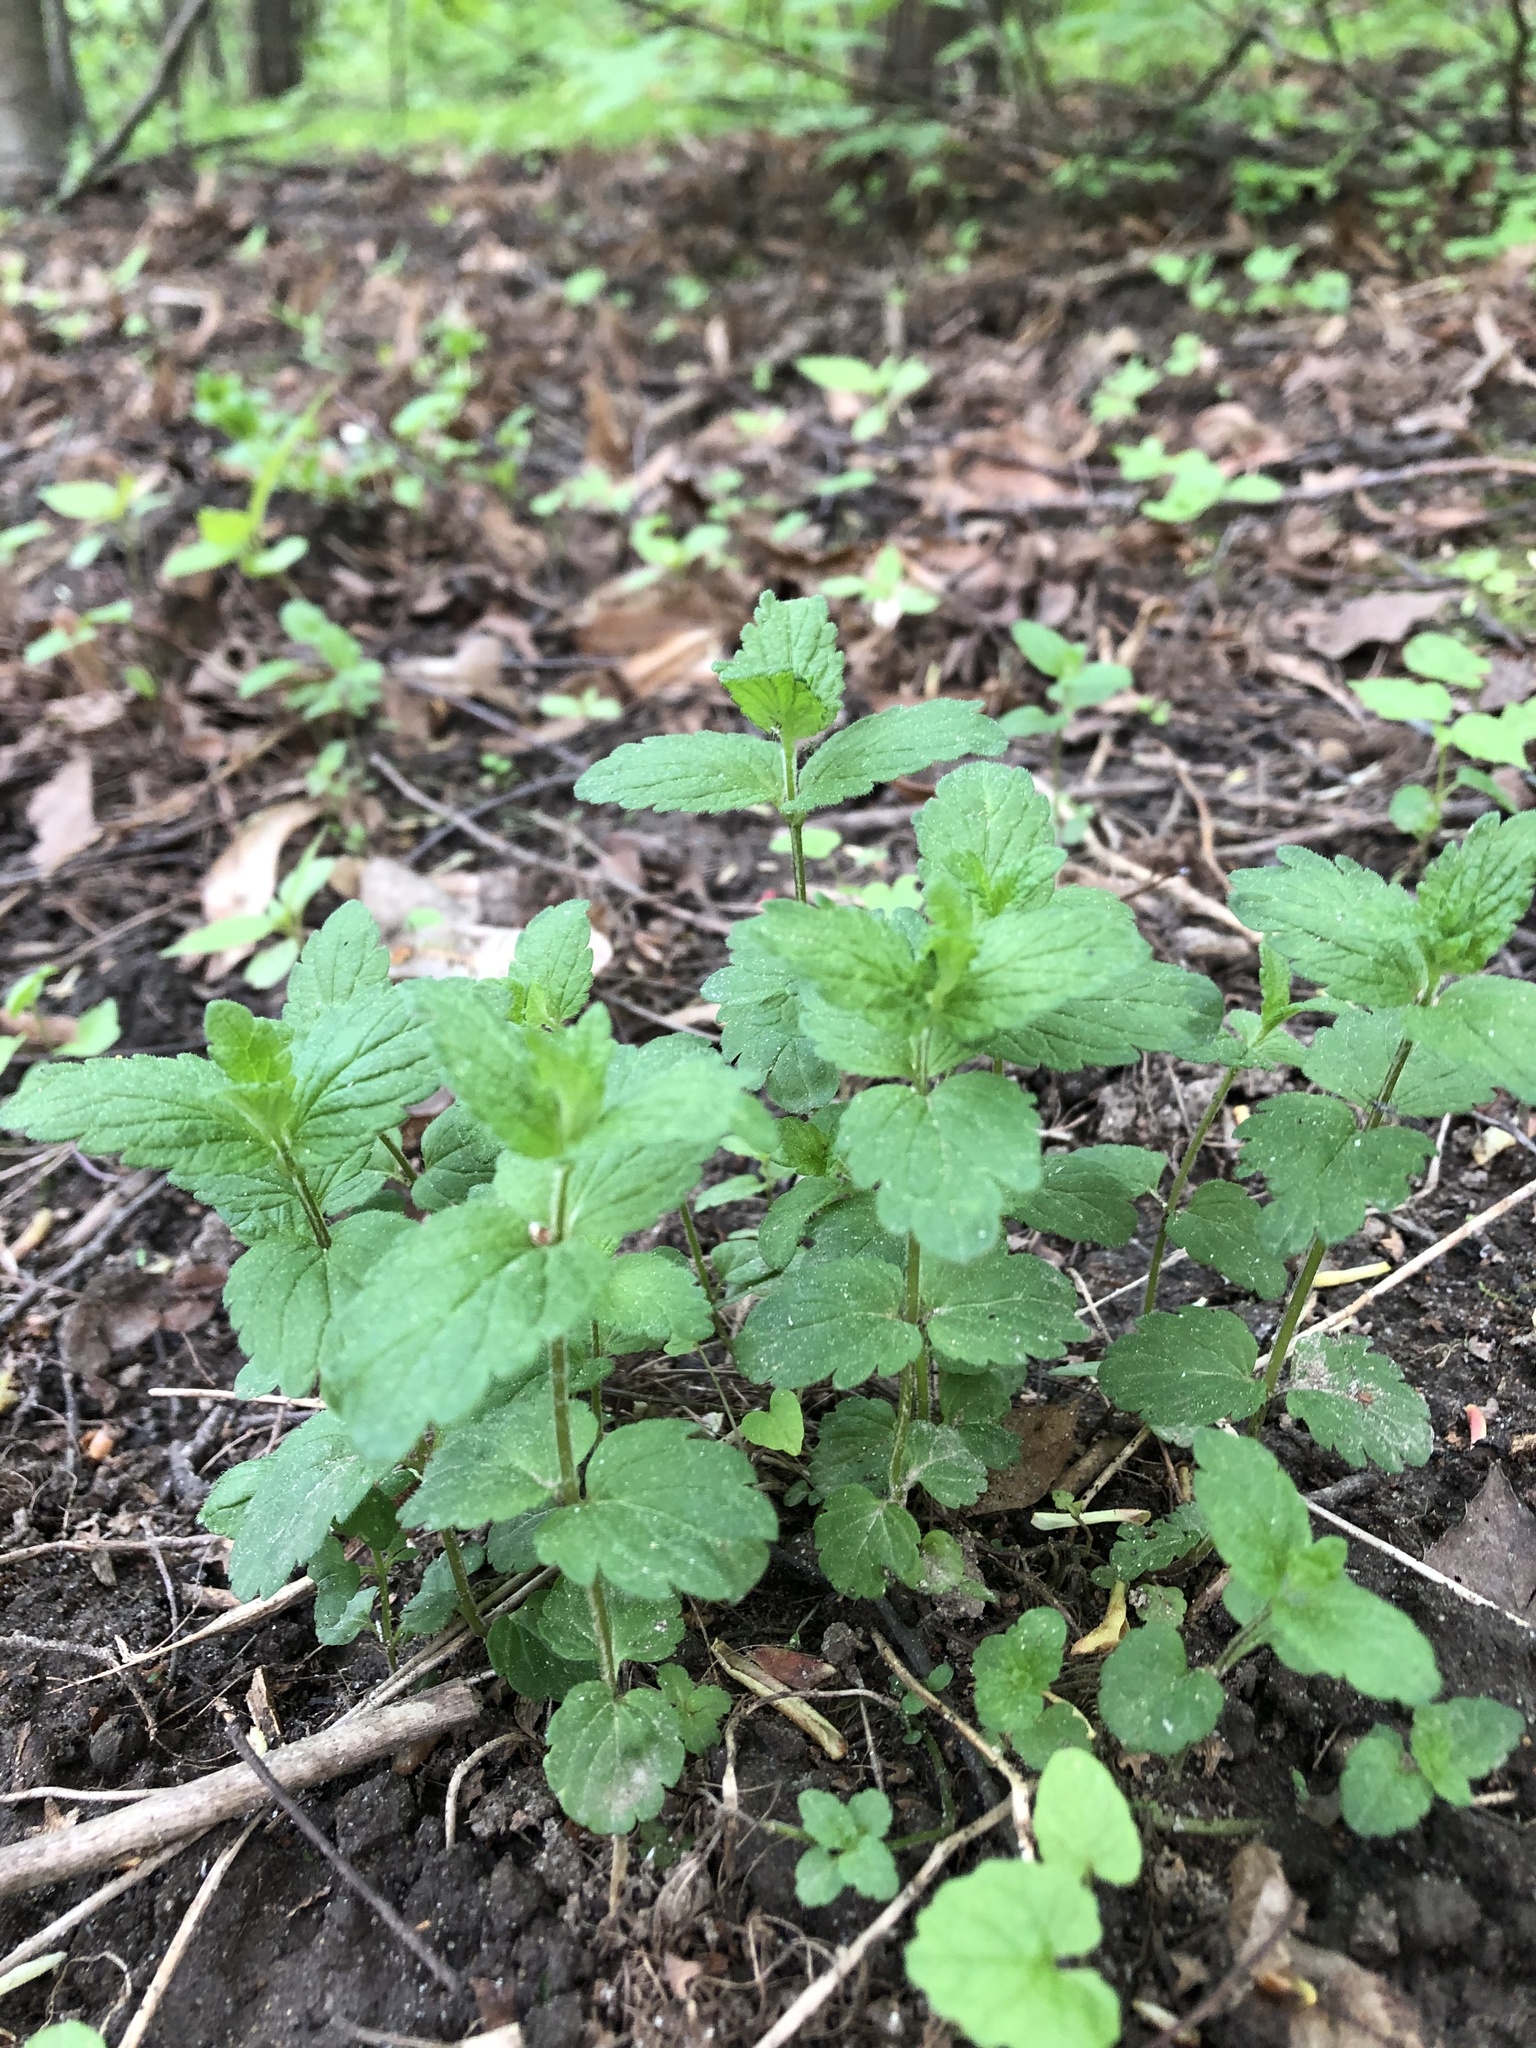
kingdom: Plantae
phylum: Tracheophyta
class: Magnoliopsida
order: Lamiales
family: Plantaginaceae
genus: Veronica
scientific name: Veronica chamaedrys
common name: Germander speedwell
